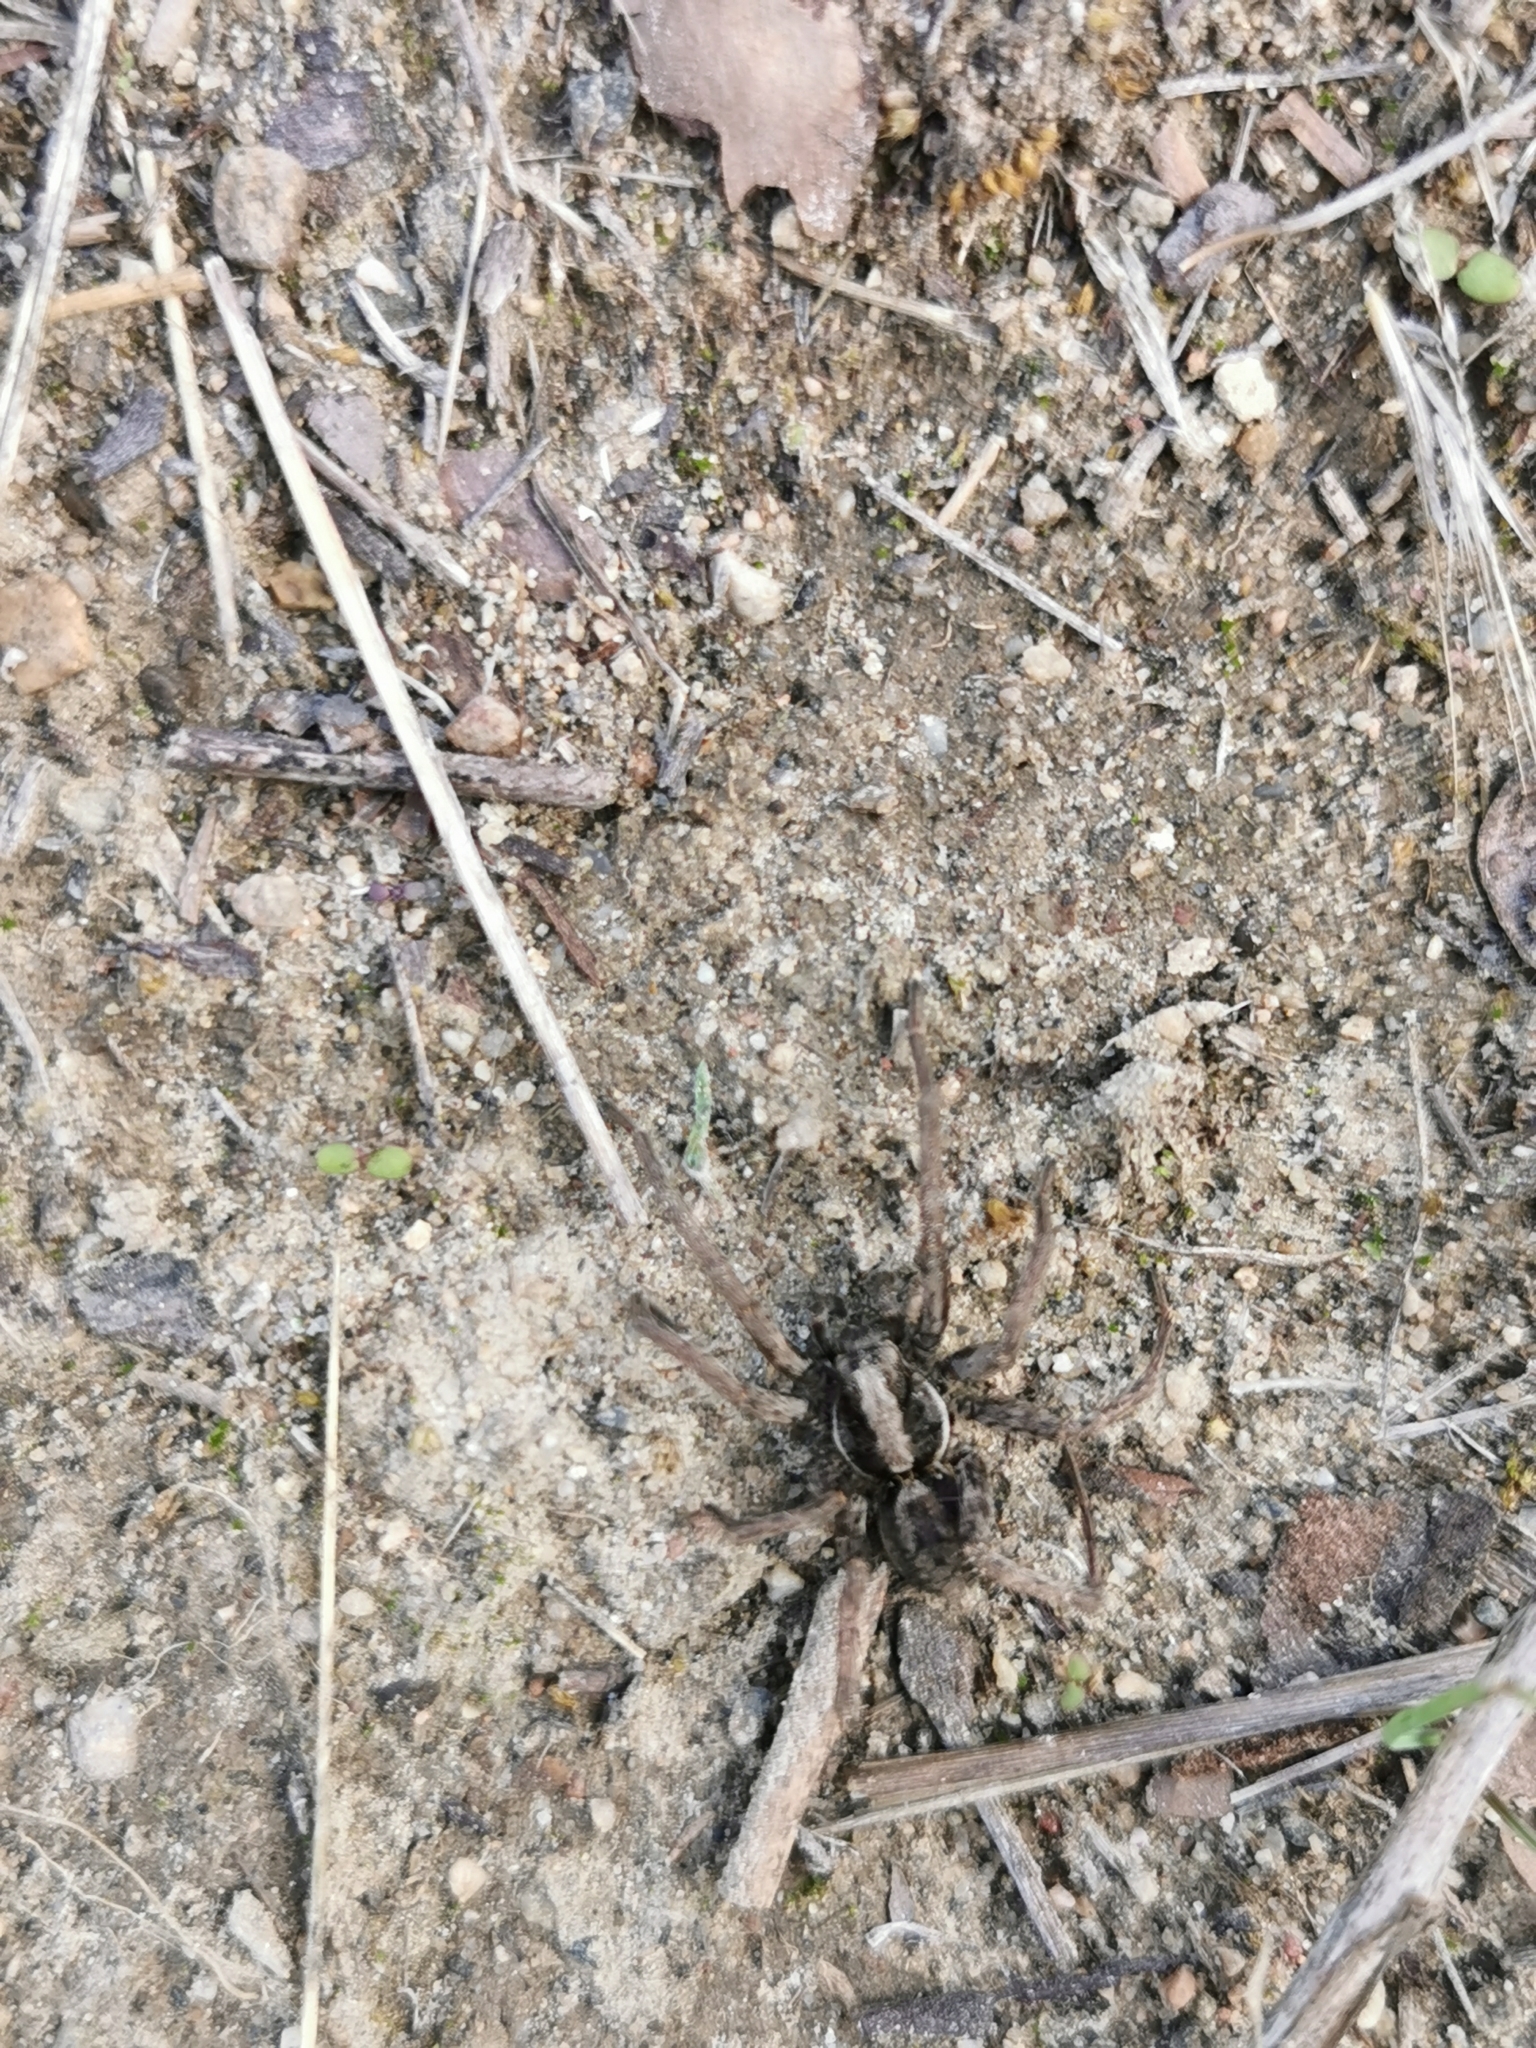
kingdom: Animalia
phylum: Arthropoda
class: Arachnida
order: Araneae
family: Lycosidae
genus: Hogna
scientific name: Hogna frondicola
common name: Forest wolf spider
